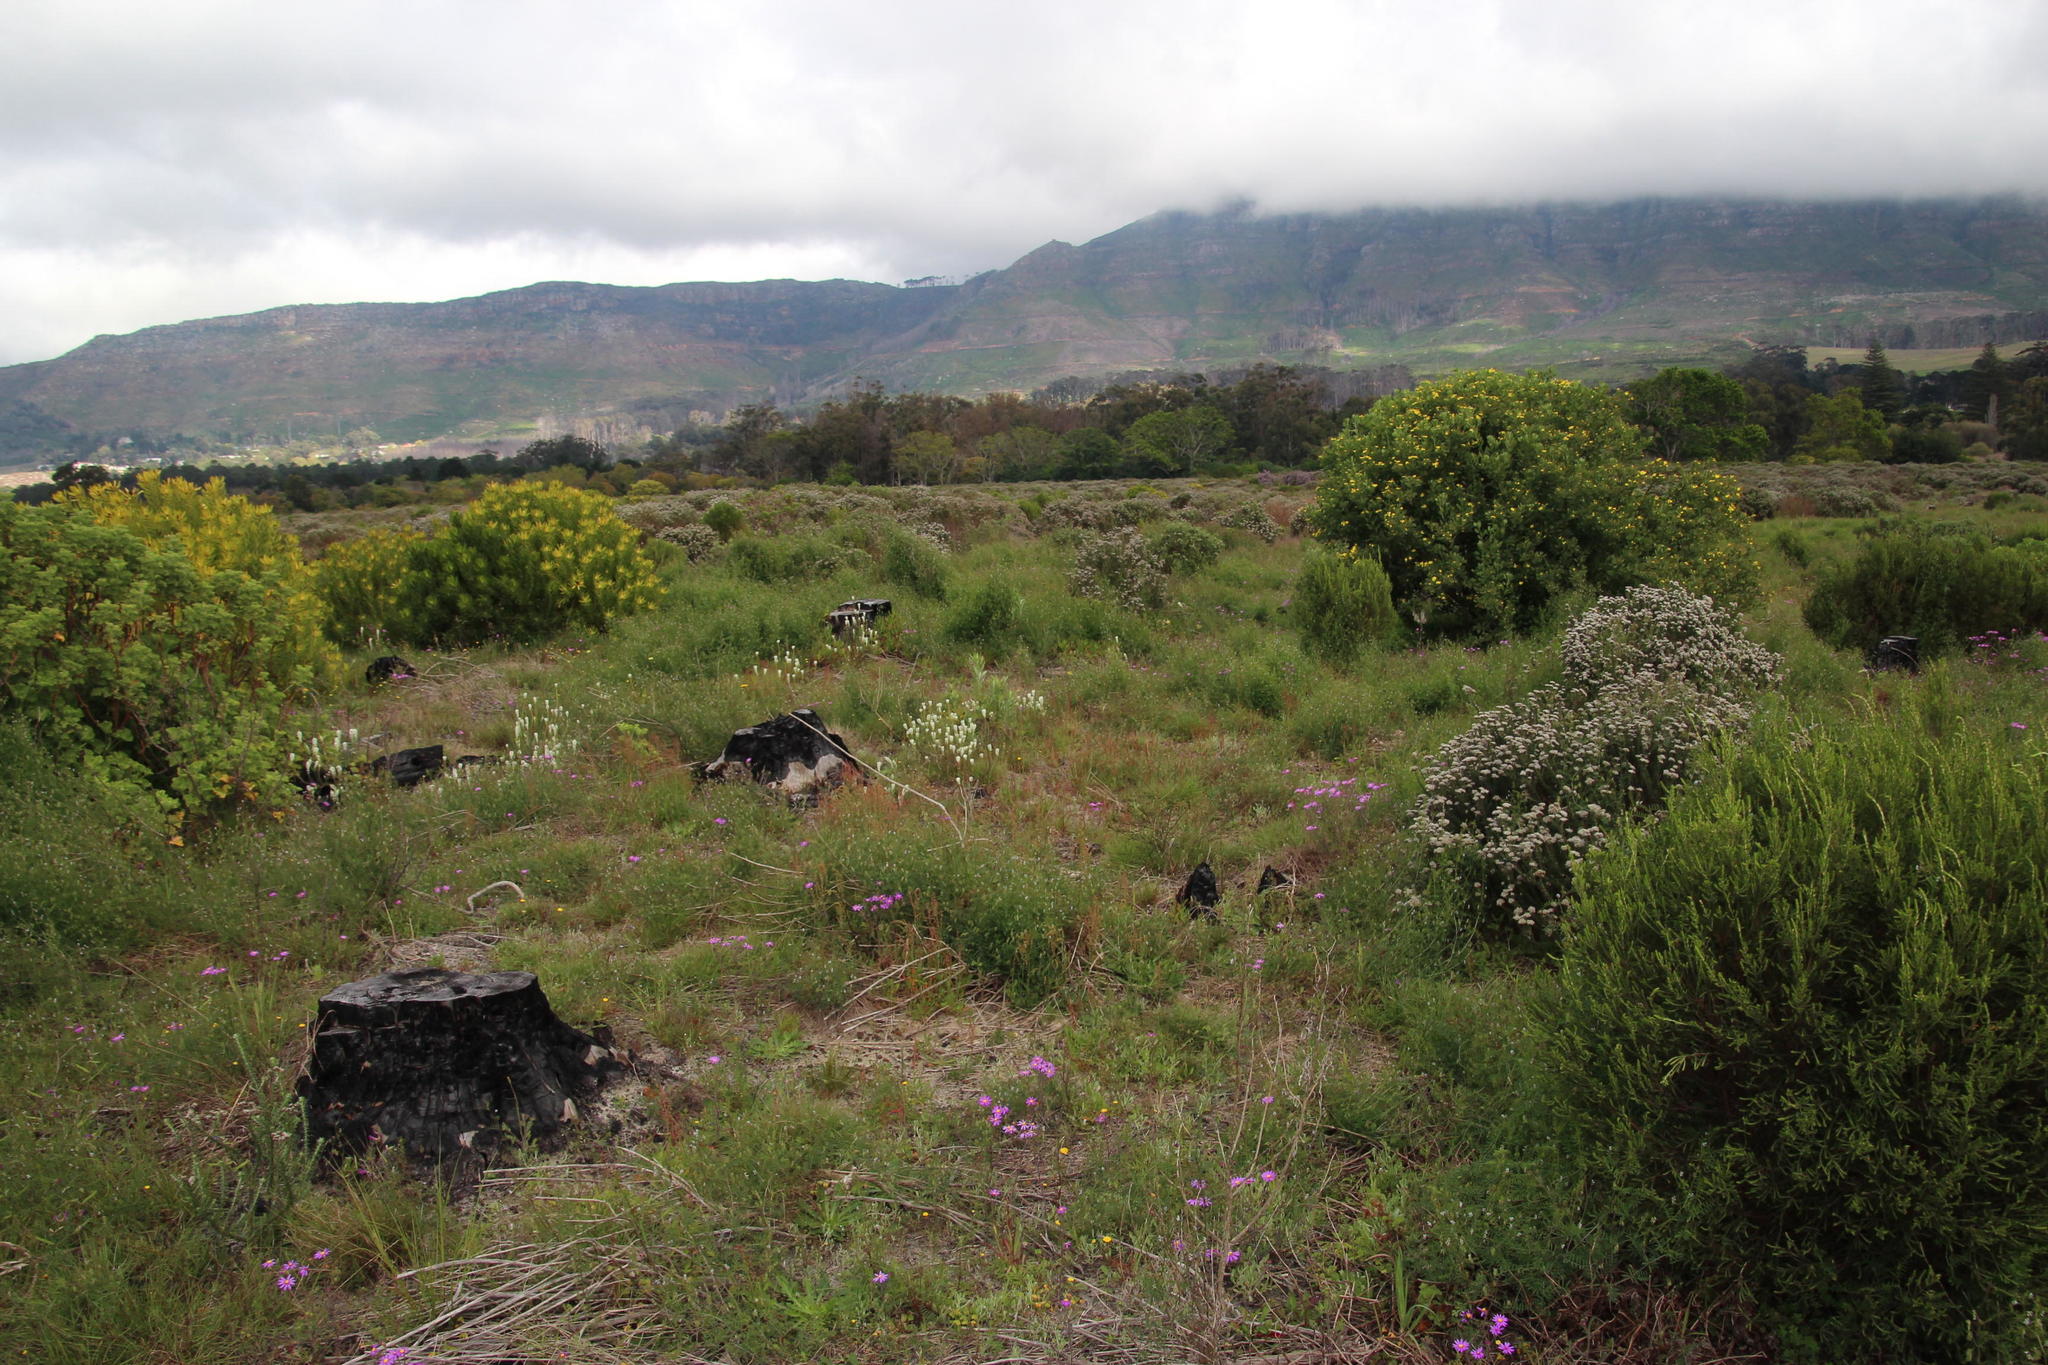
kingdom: Plantae
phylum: Tracheophyta
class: Liliopsida
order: Asparagales
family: Asparagaceae
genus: Lachenalia
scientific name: Lachenalia orchioides
